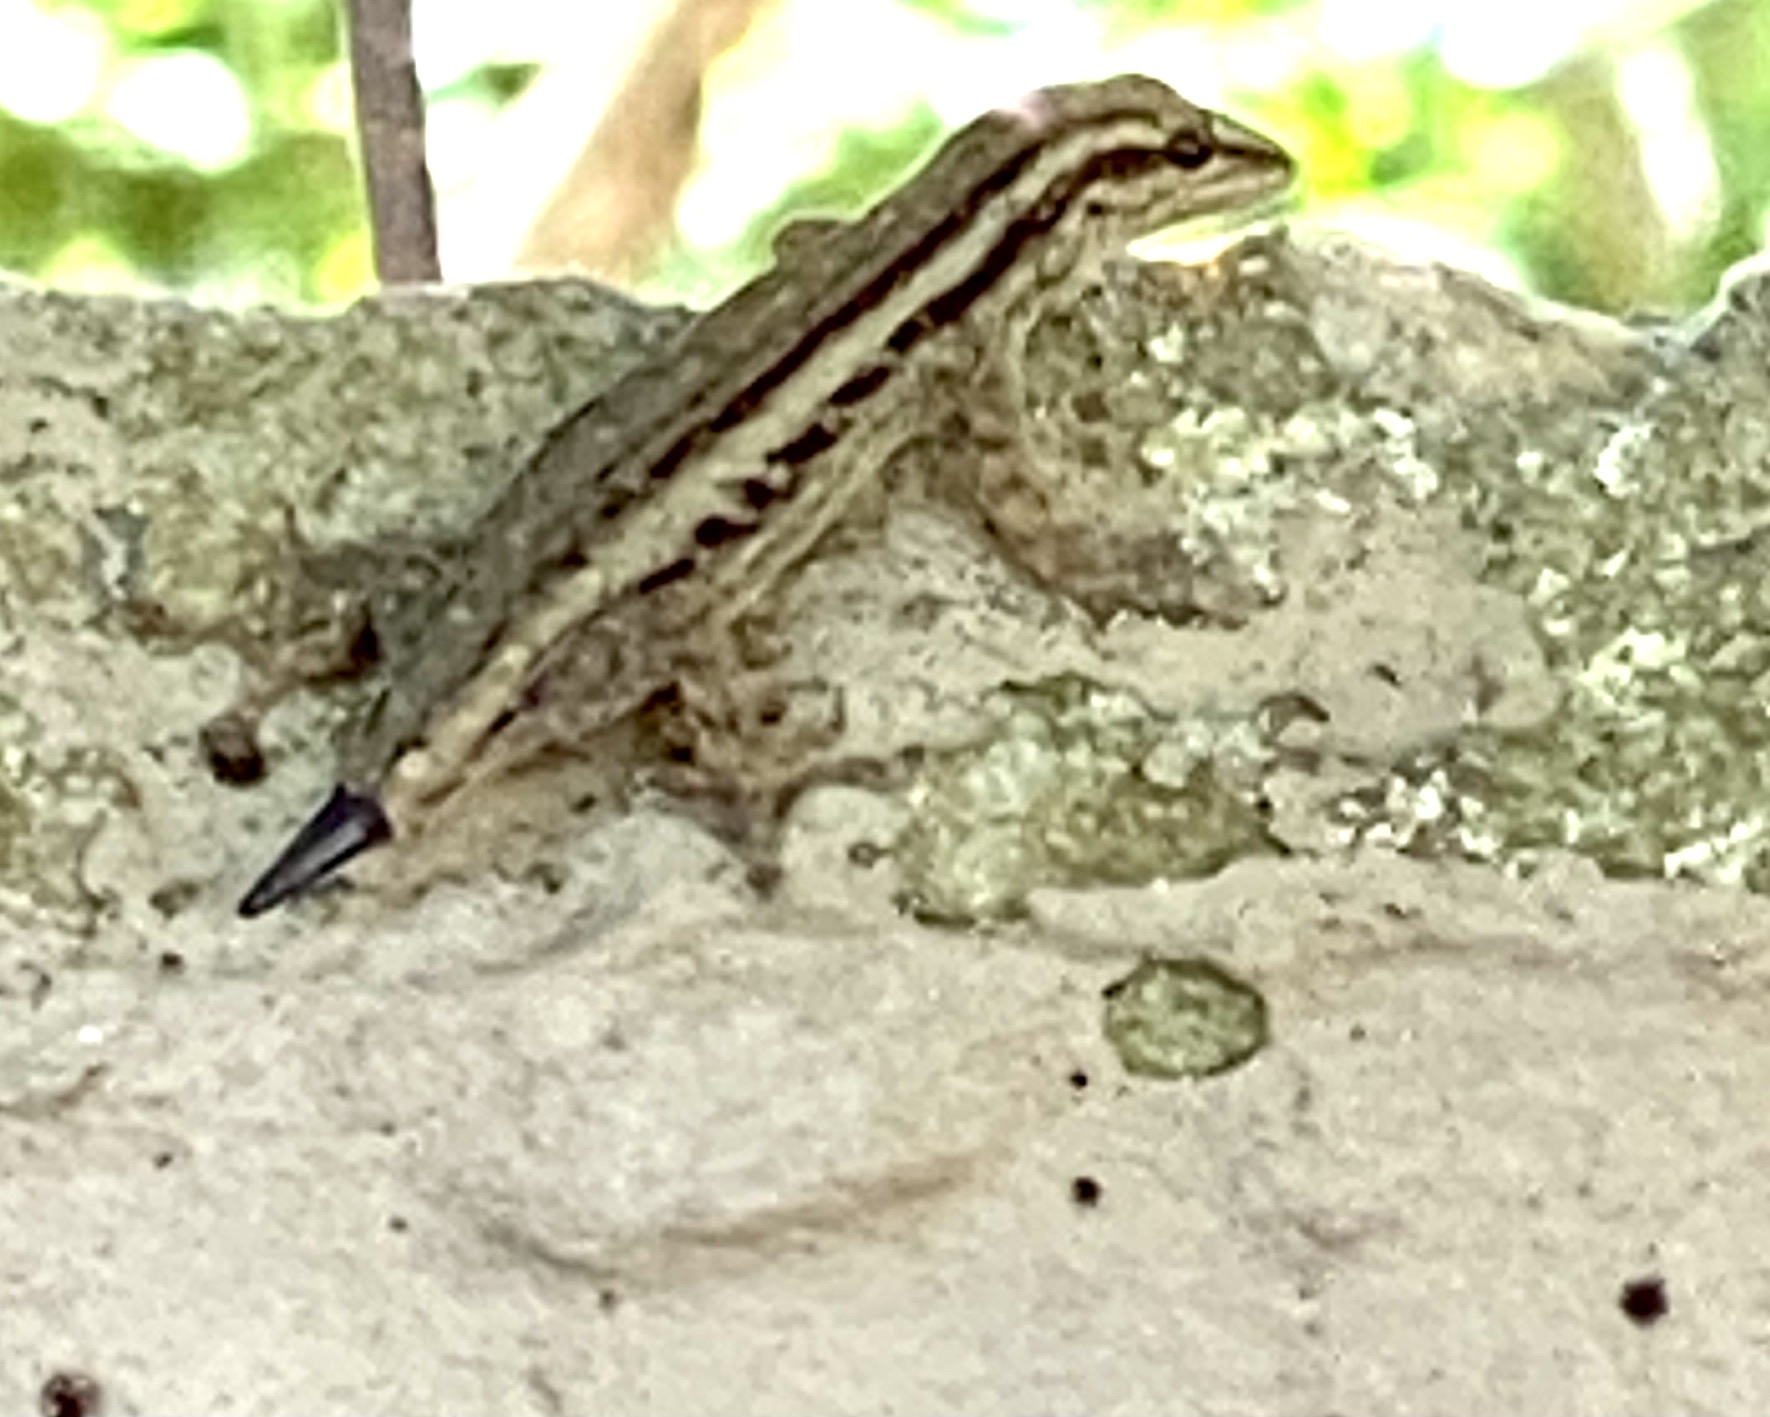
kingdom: Animalia
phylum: Chordata
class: Squamata
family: Gekkonidae
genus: Lygodactylus
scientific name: Lygodactylus capensis
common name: Cape dwarf gecko
